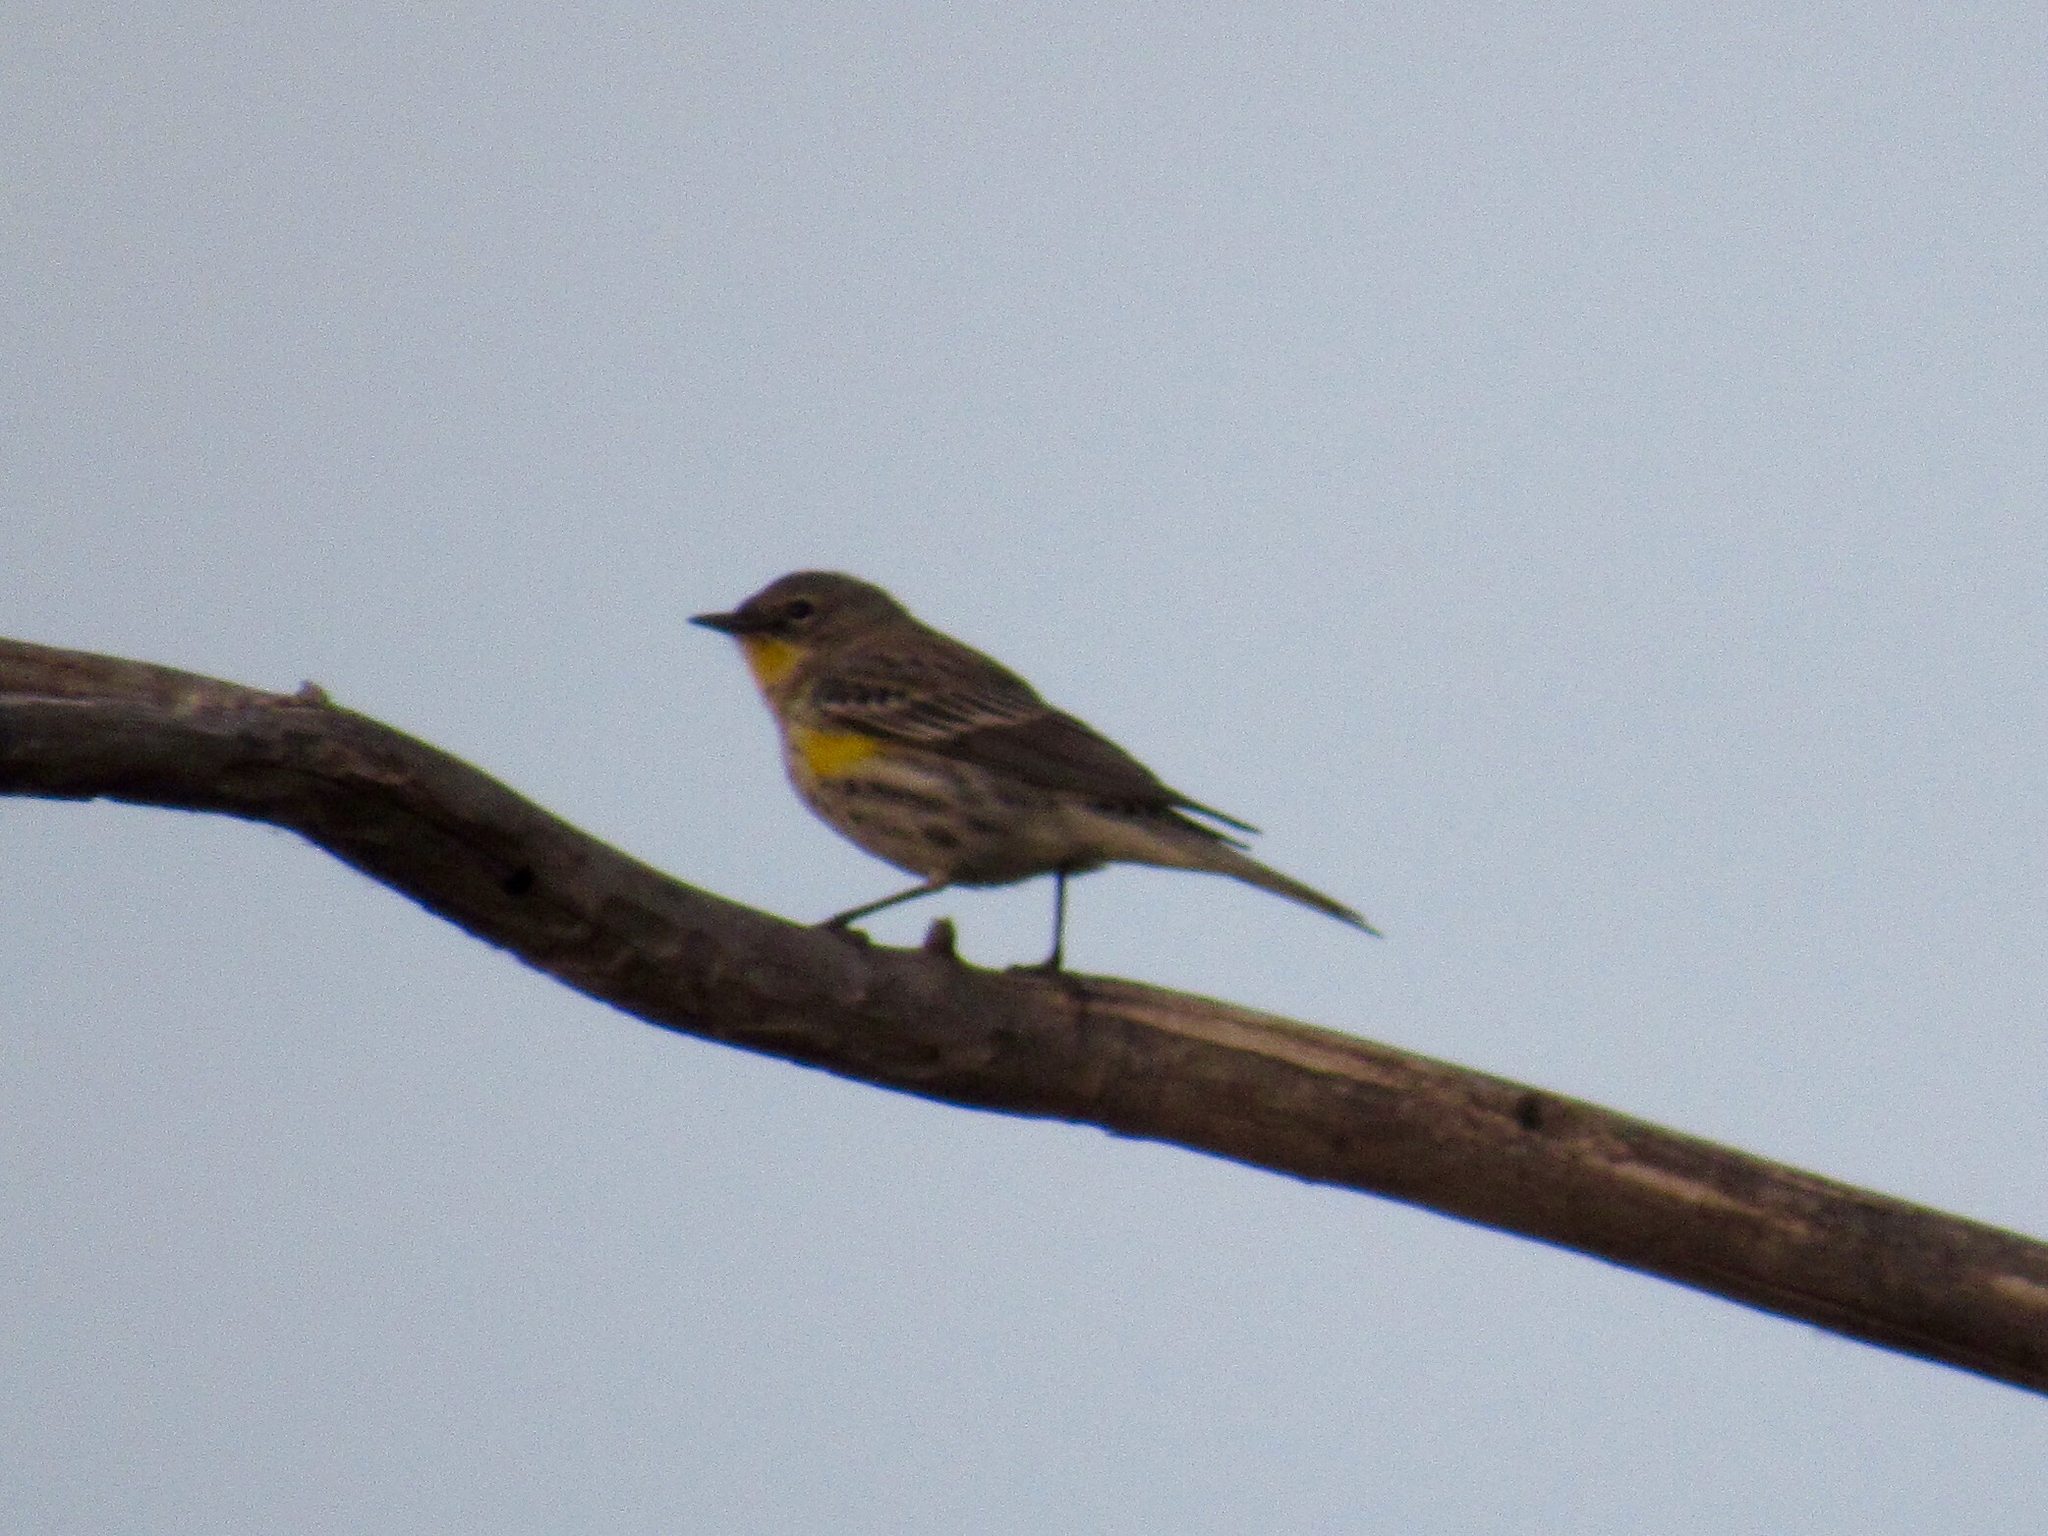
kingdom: Animalia
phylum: Chordata
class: Aves
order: Passeriformes
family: Parulidae
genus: Setophaga
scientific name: Setophaga auduboni
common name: Audubon's warbler
